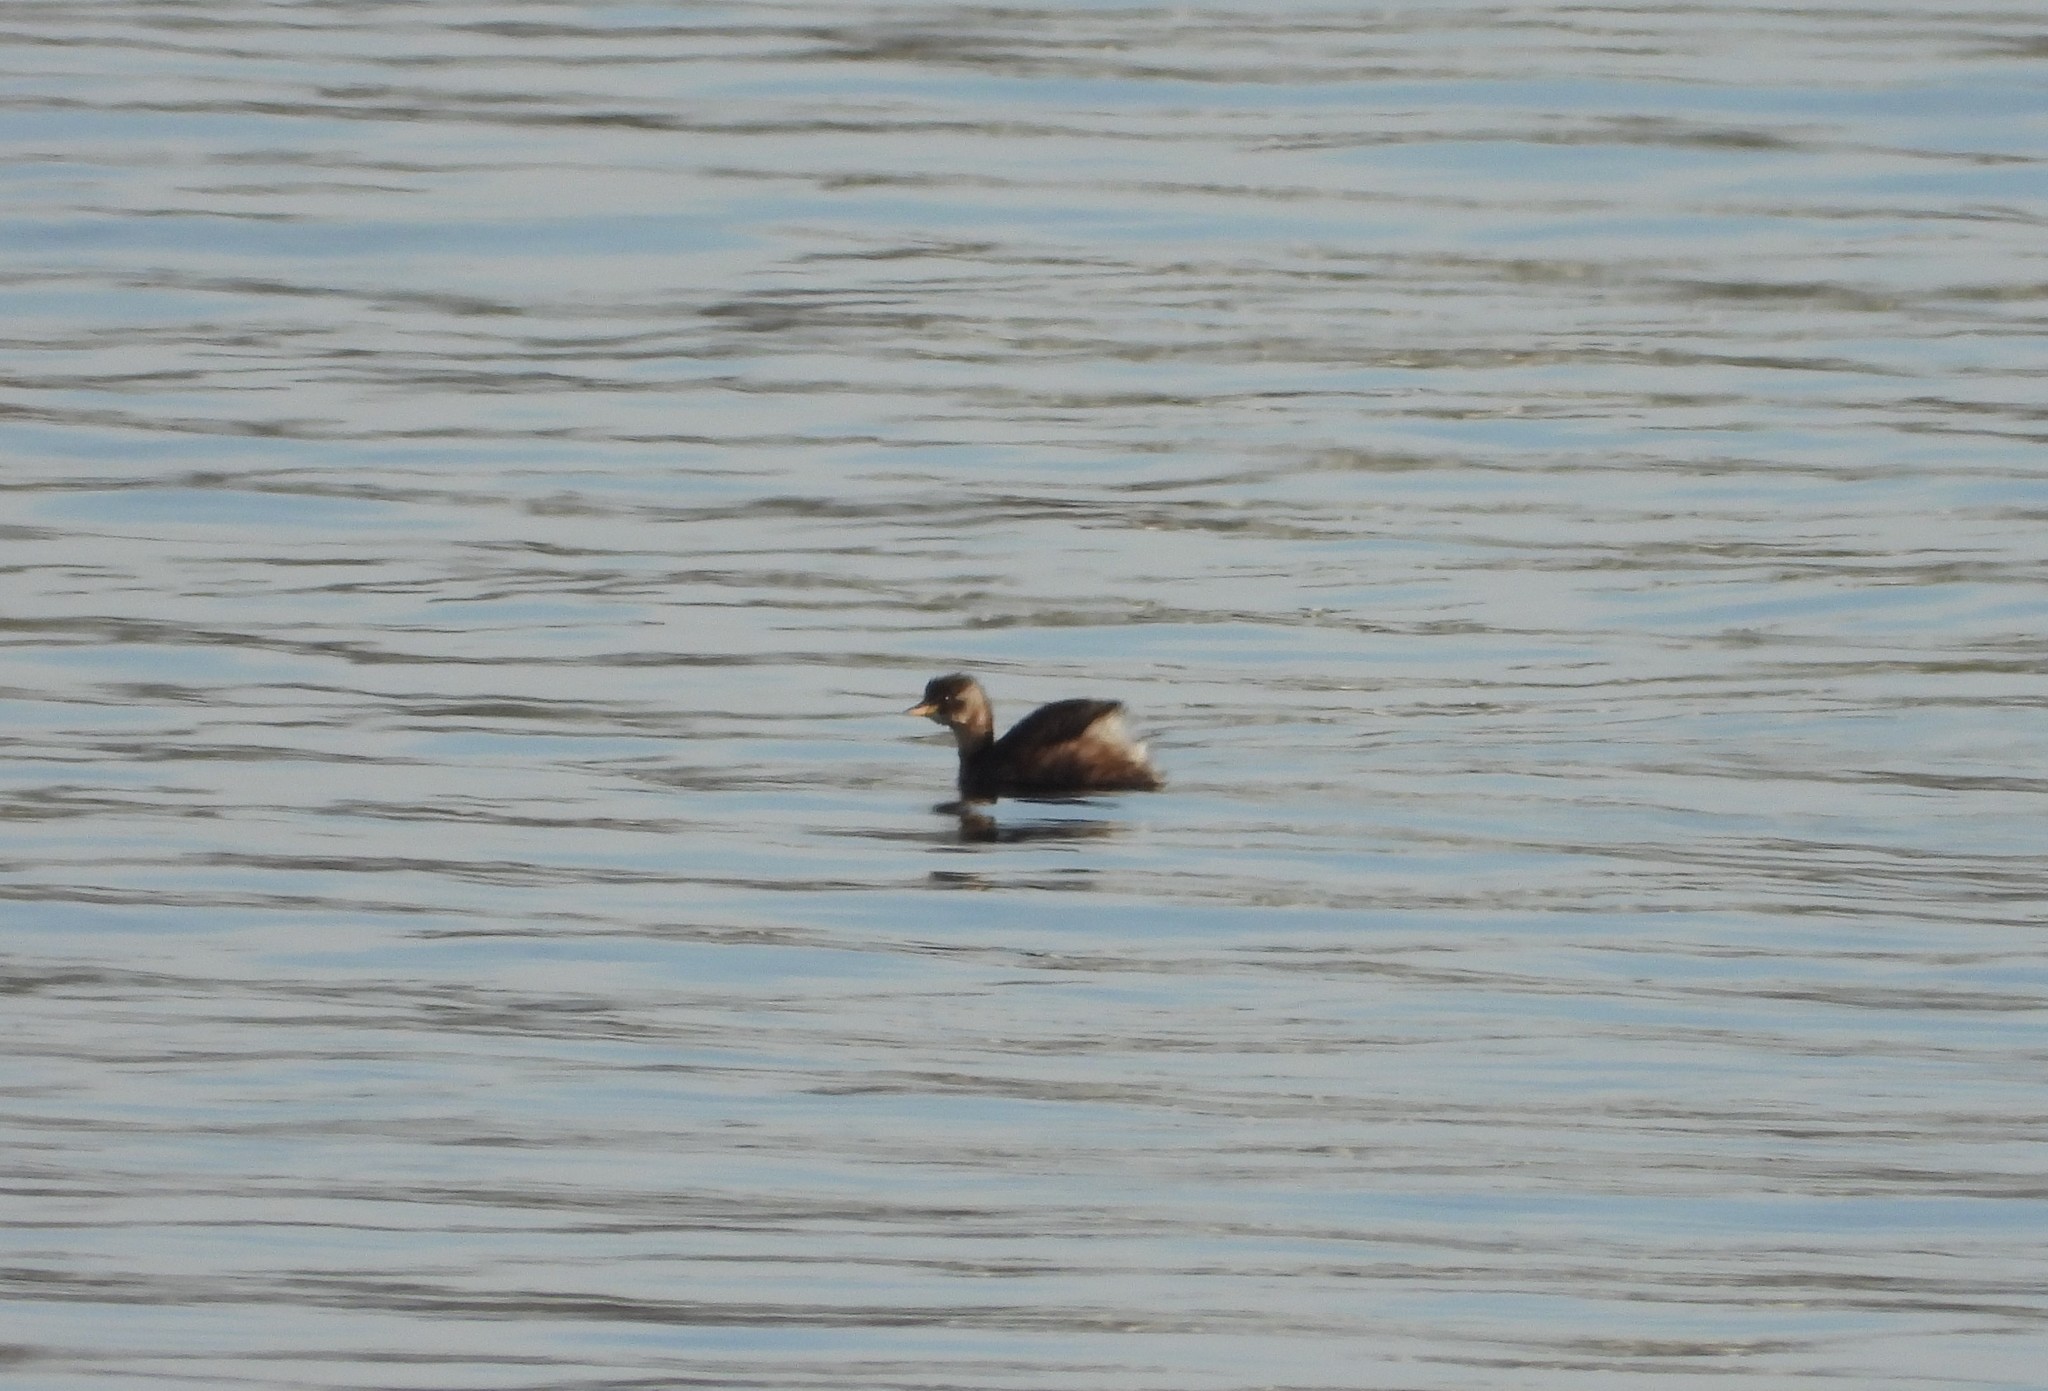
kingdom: Animalia
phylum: Chordata
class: Aves
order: Podicipediformes
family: Podicipedidae
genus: Tachybaptus
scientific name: Tachybaptus ruficollis
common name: Little grebe
